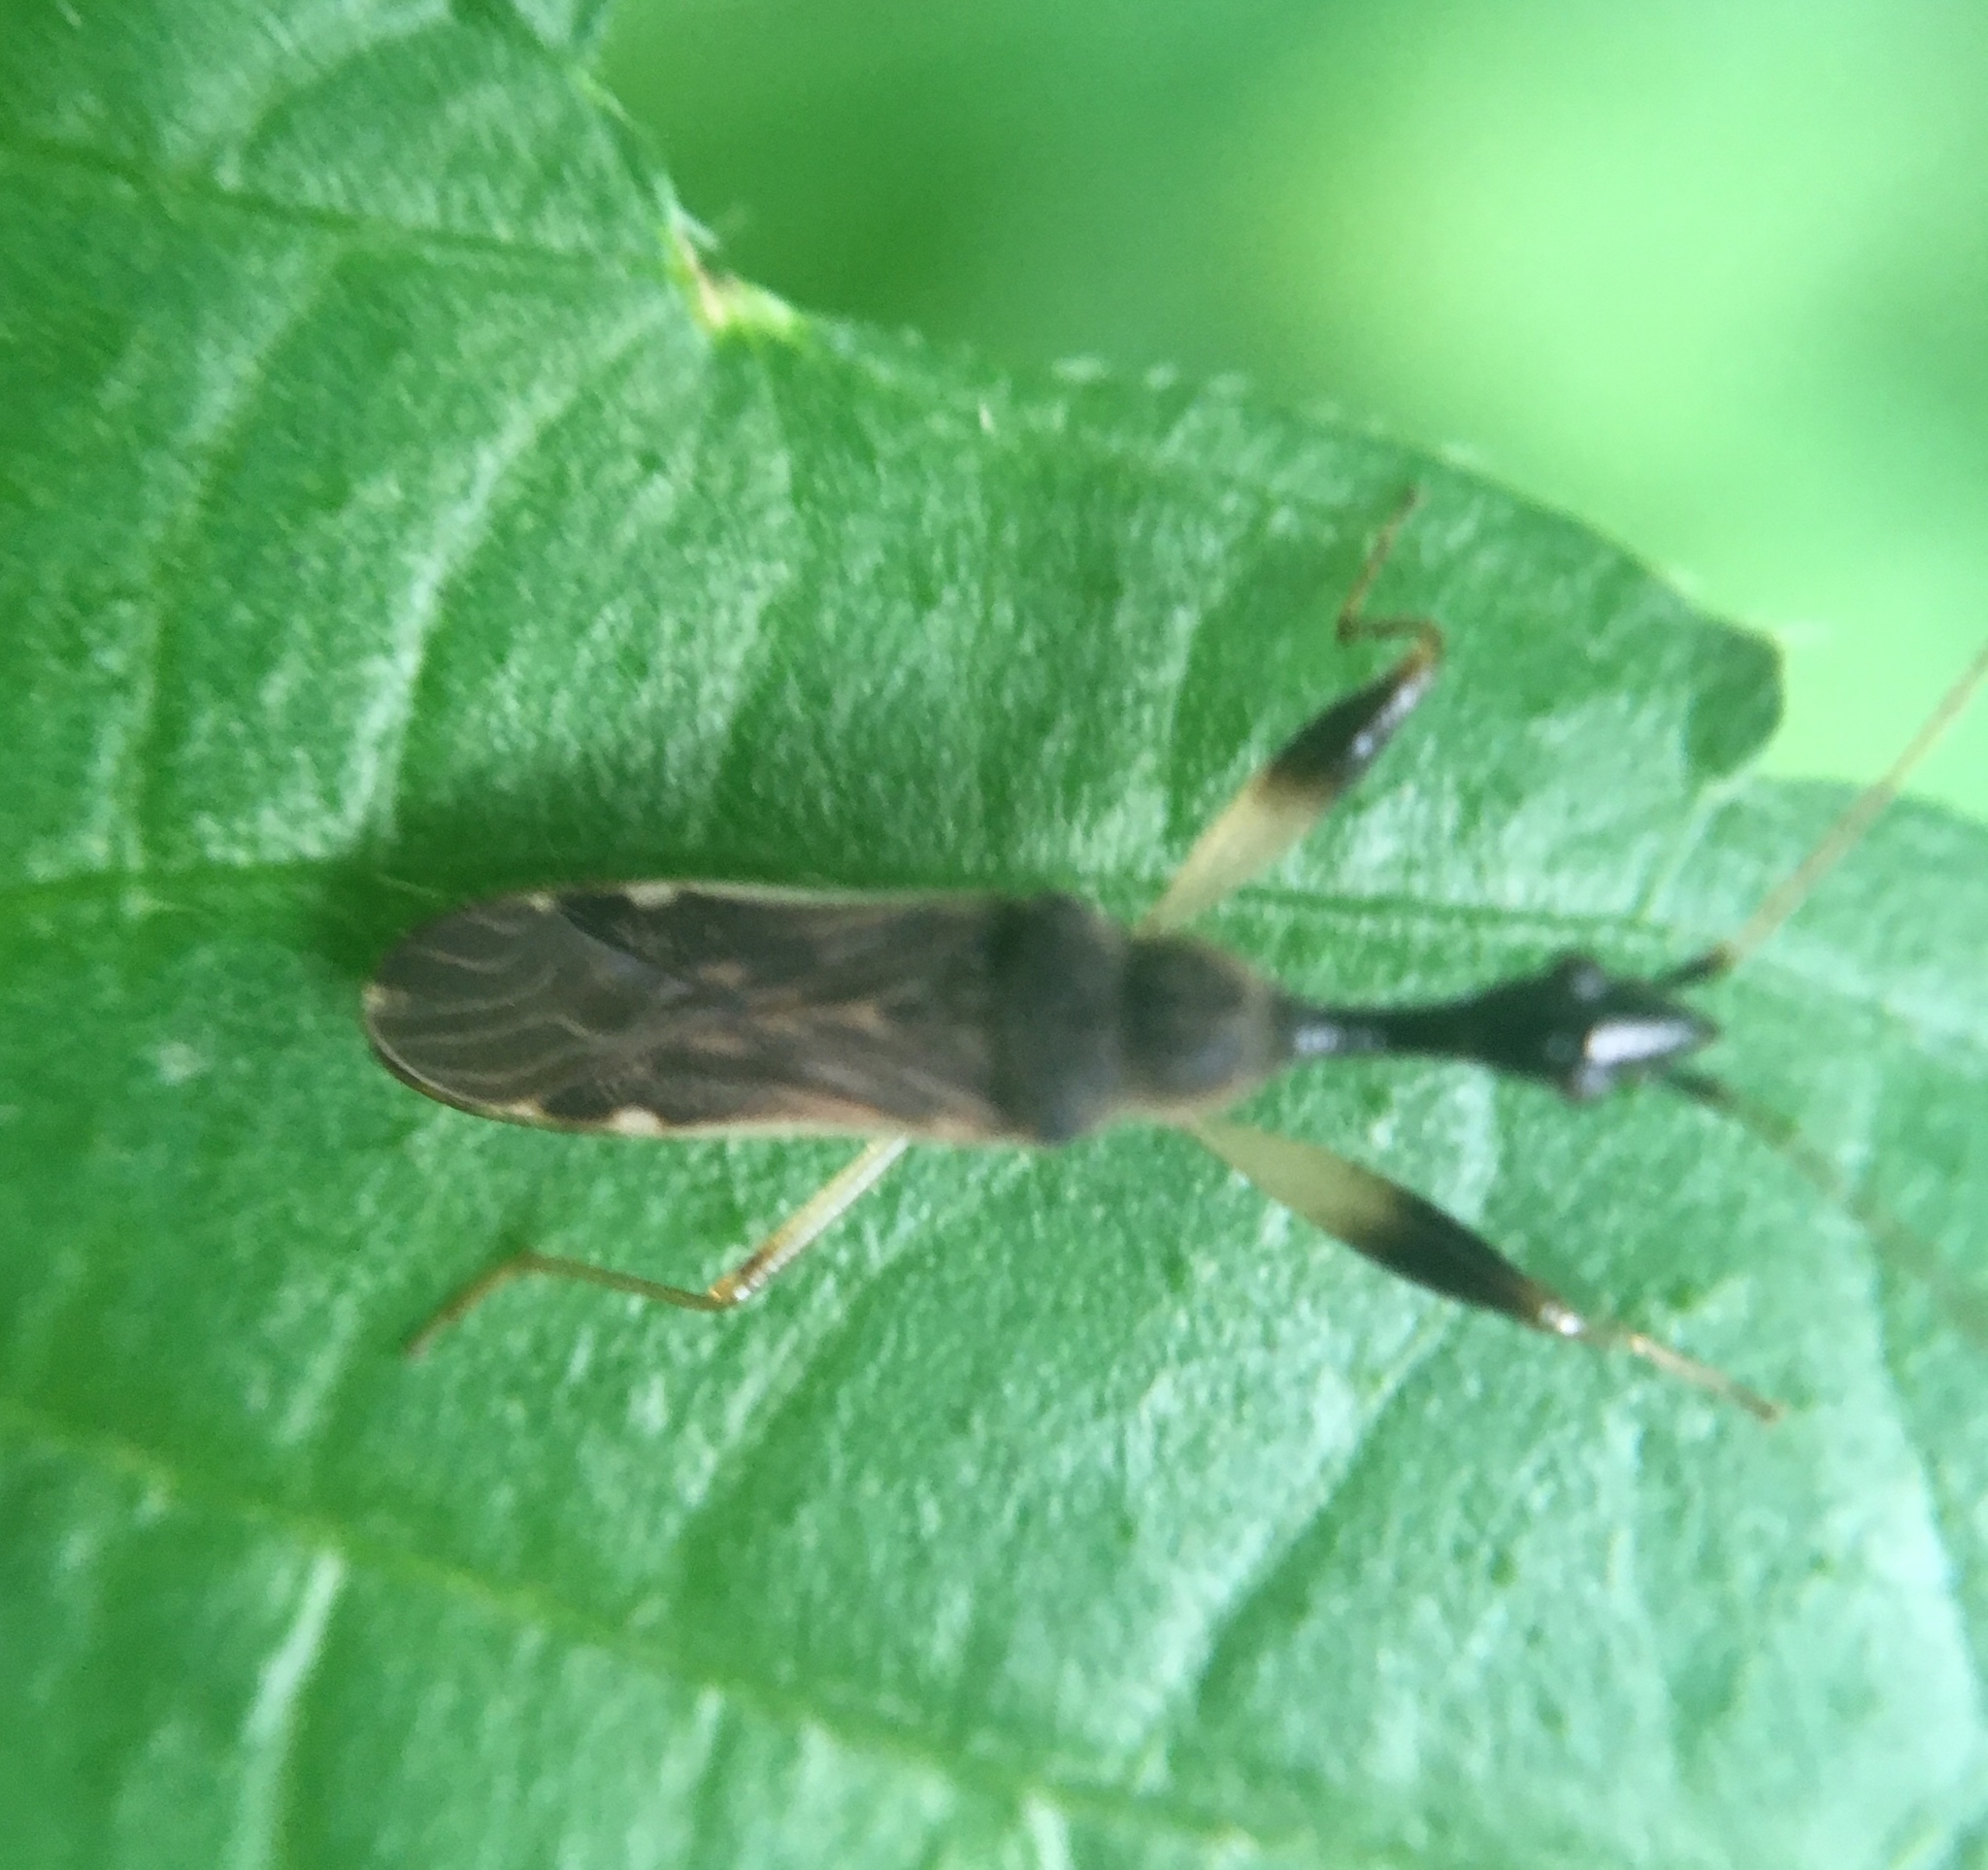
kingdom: Animalia
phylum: Arthropoda
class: Insecta
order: Hemiptera
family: Rhyparochromidae
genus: Myodocha
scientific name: Myodocha serripes
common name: Long-necked seed bug
